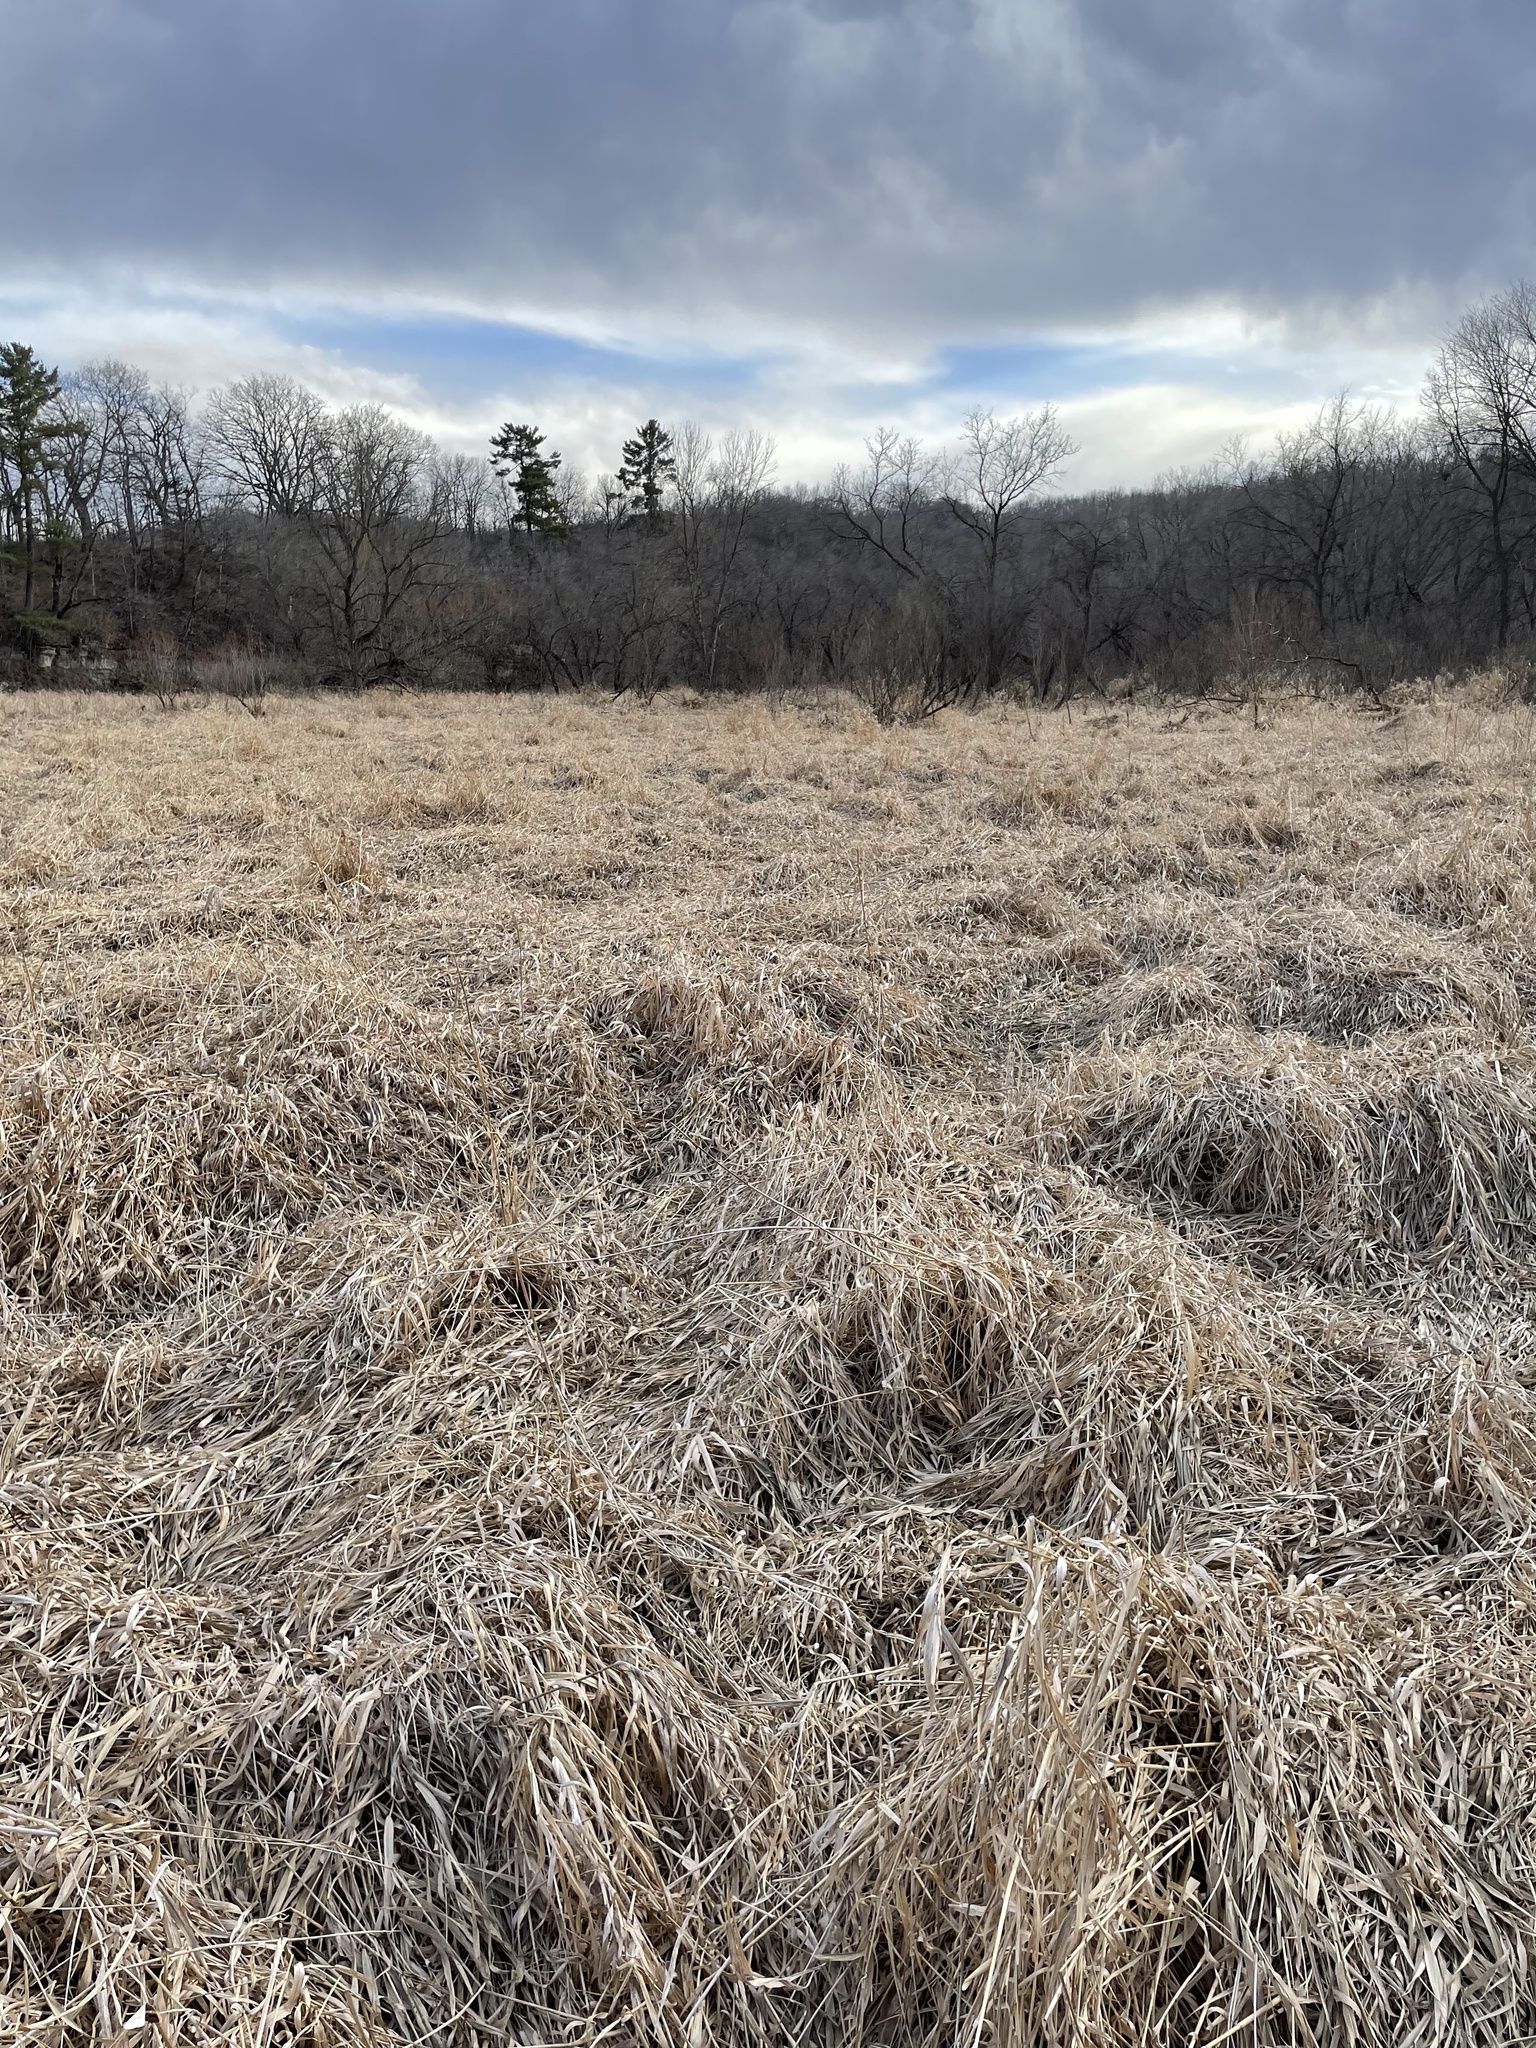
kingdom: Plantae
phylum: Tracheophyta
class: Liliopsida
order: Poales
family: Poaceae
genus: Phalaris
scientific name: Phalaris arundinacea
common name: Reed canary-grass
